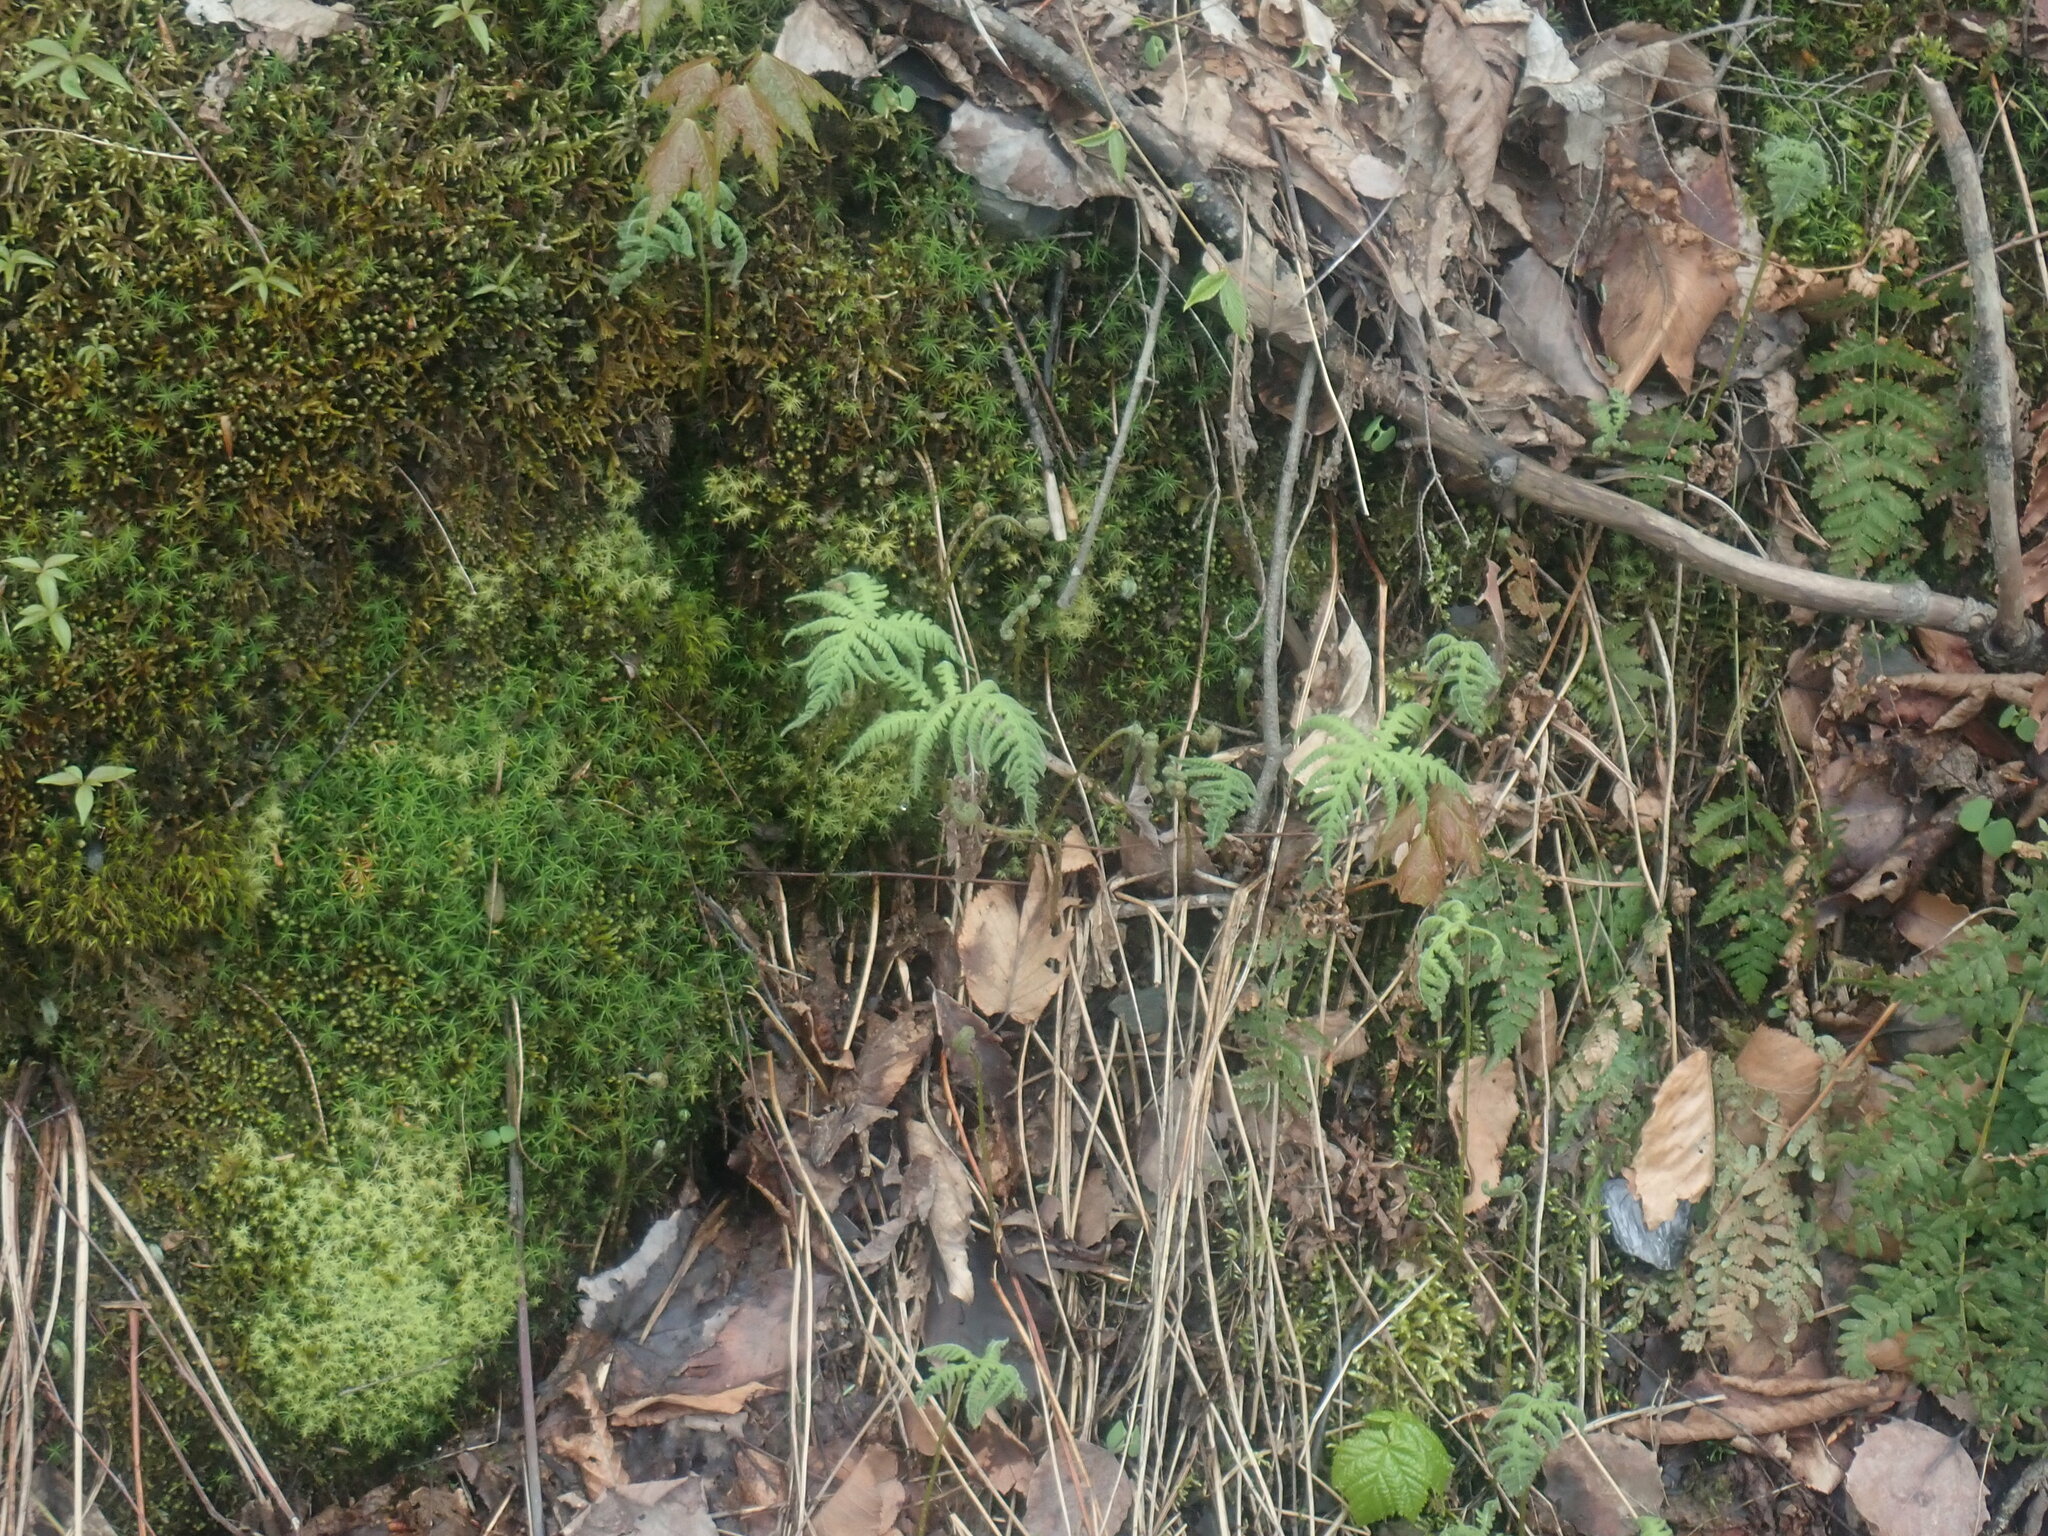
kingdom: Plantae
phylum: Tracheophyta
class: Polypodiopsida
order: Polypodiales
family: Thelypteridaceae
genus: Phegopteris
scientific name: Phegopteris connectilis
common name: Beech fern
